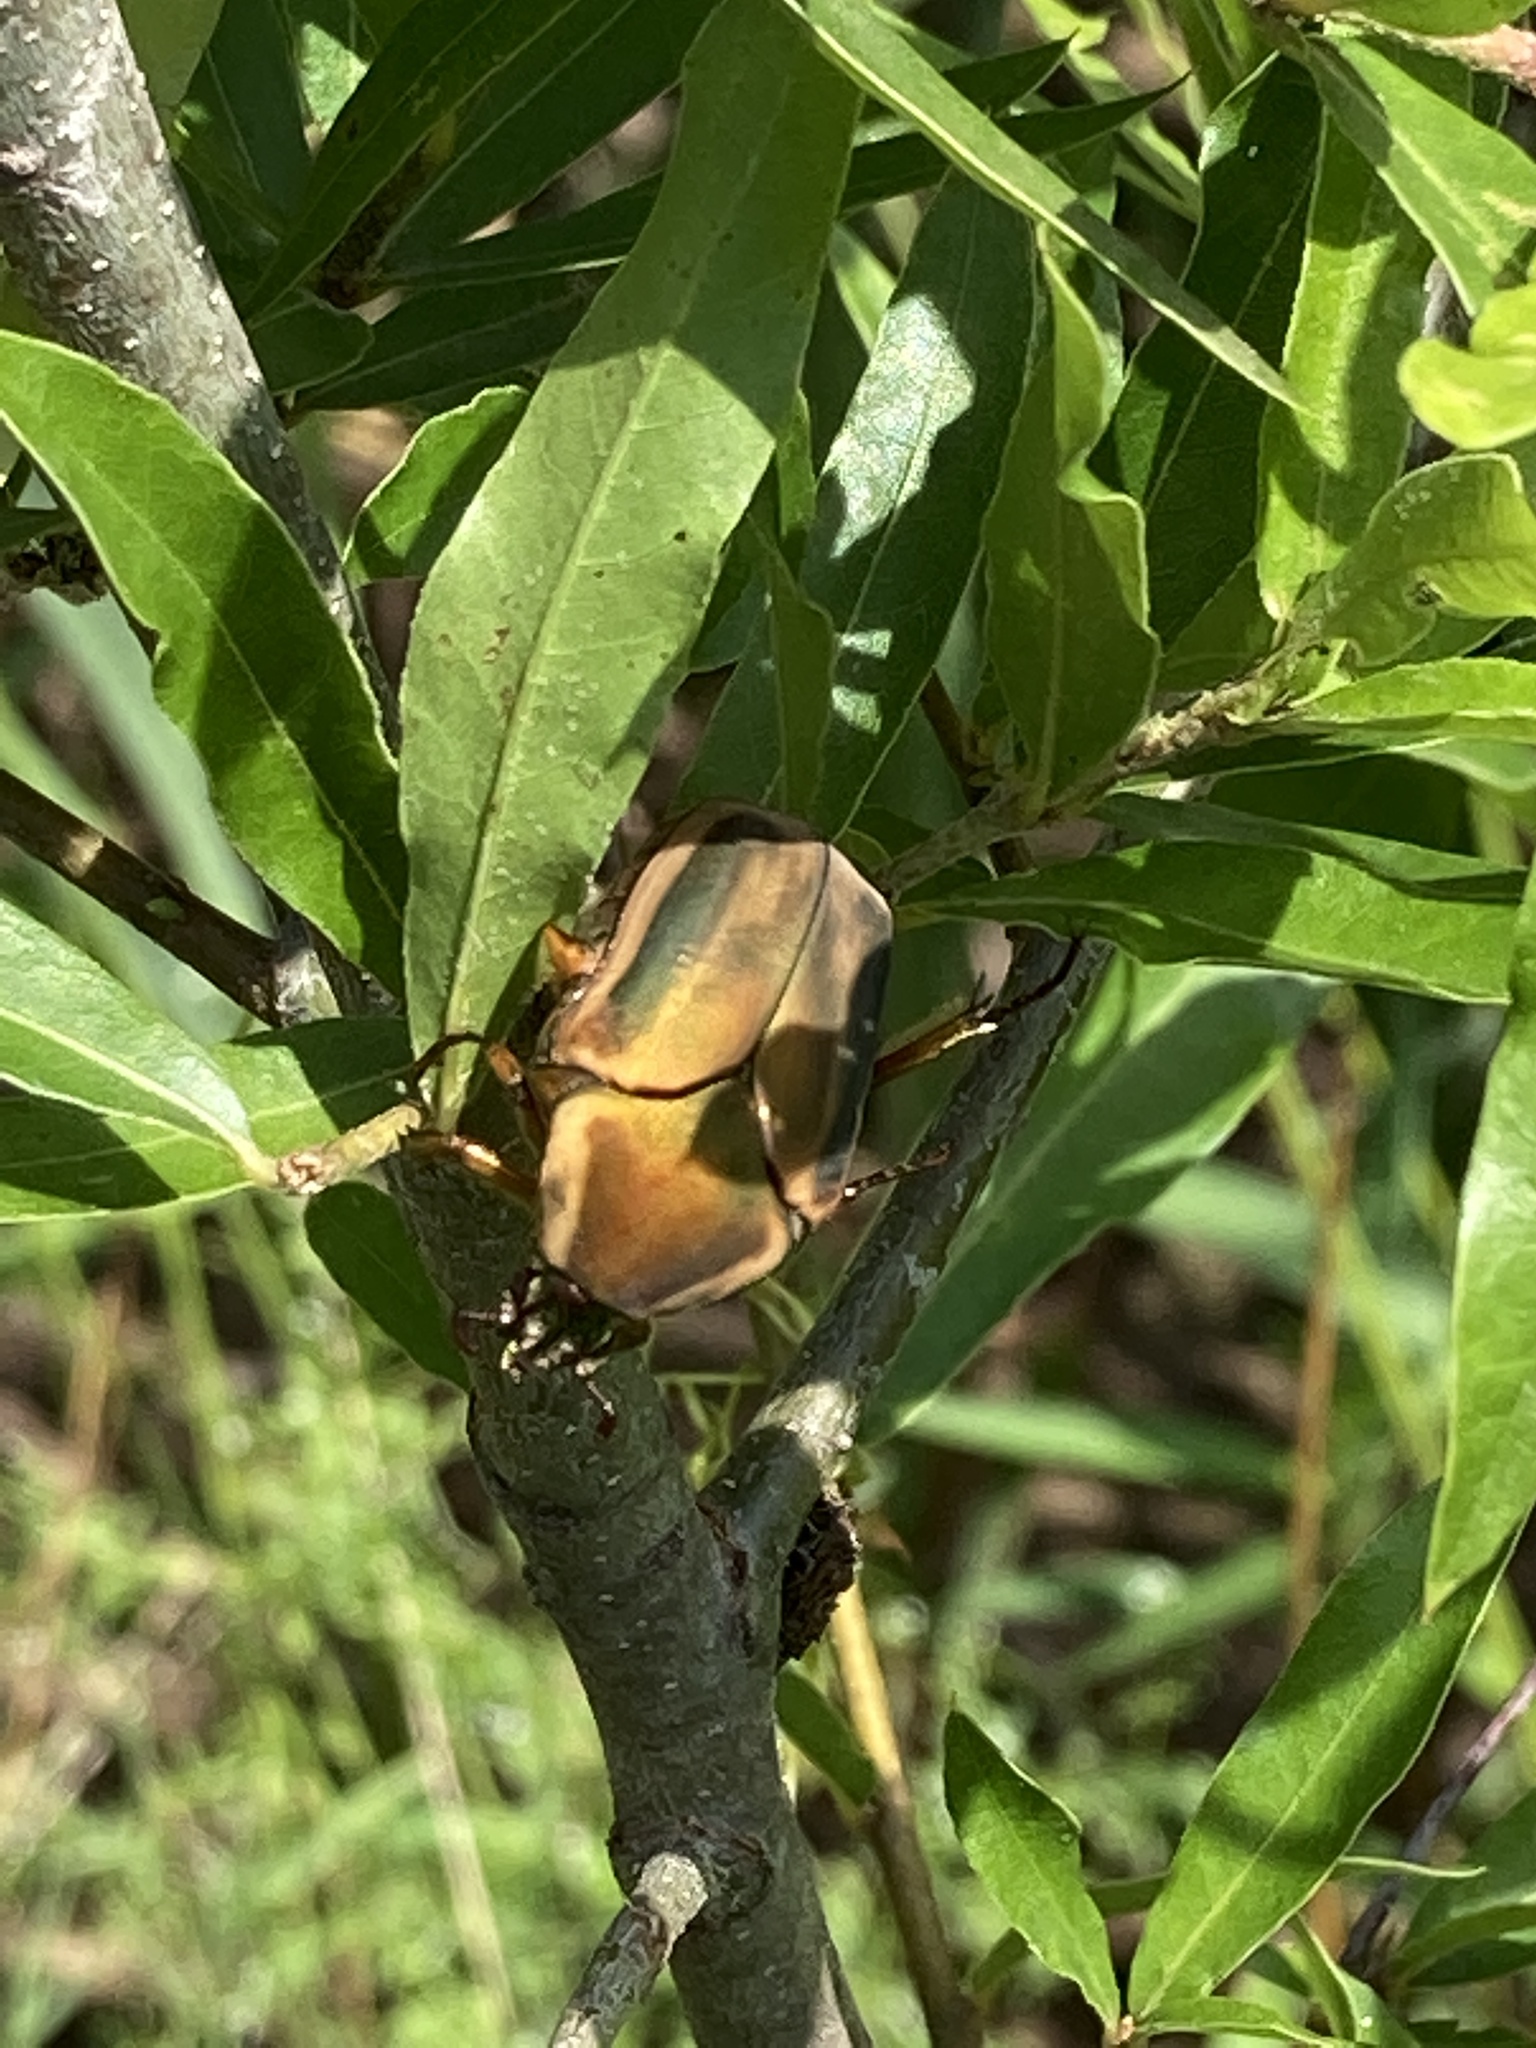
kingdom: Animalia
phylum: Arthropoda
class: Insecta
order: Coleoptera
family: Scarabaeidae
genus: Cotinis
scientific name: Cotinis nitida
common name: Common green june beetle
